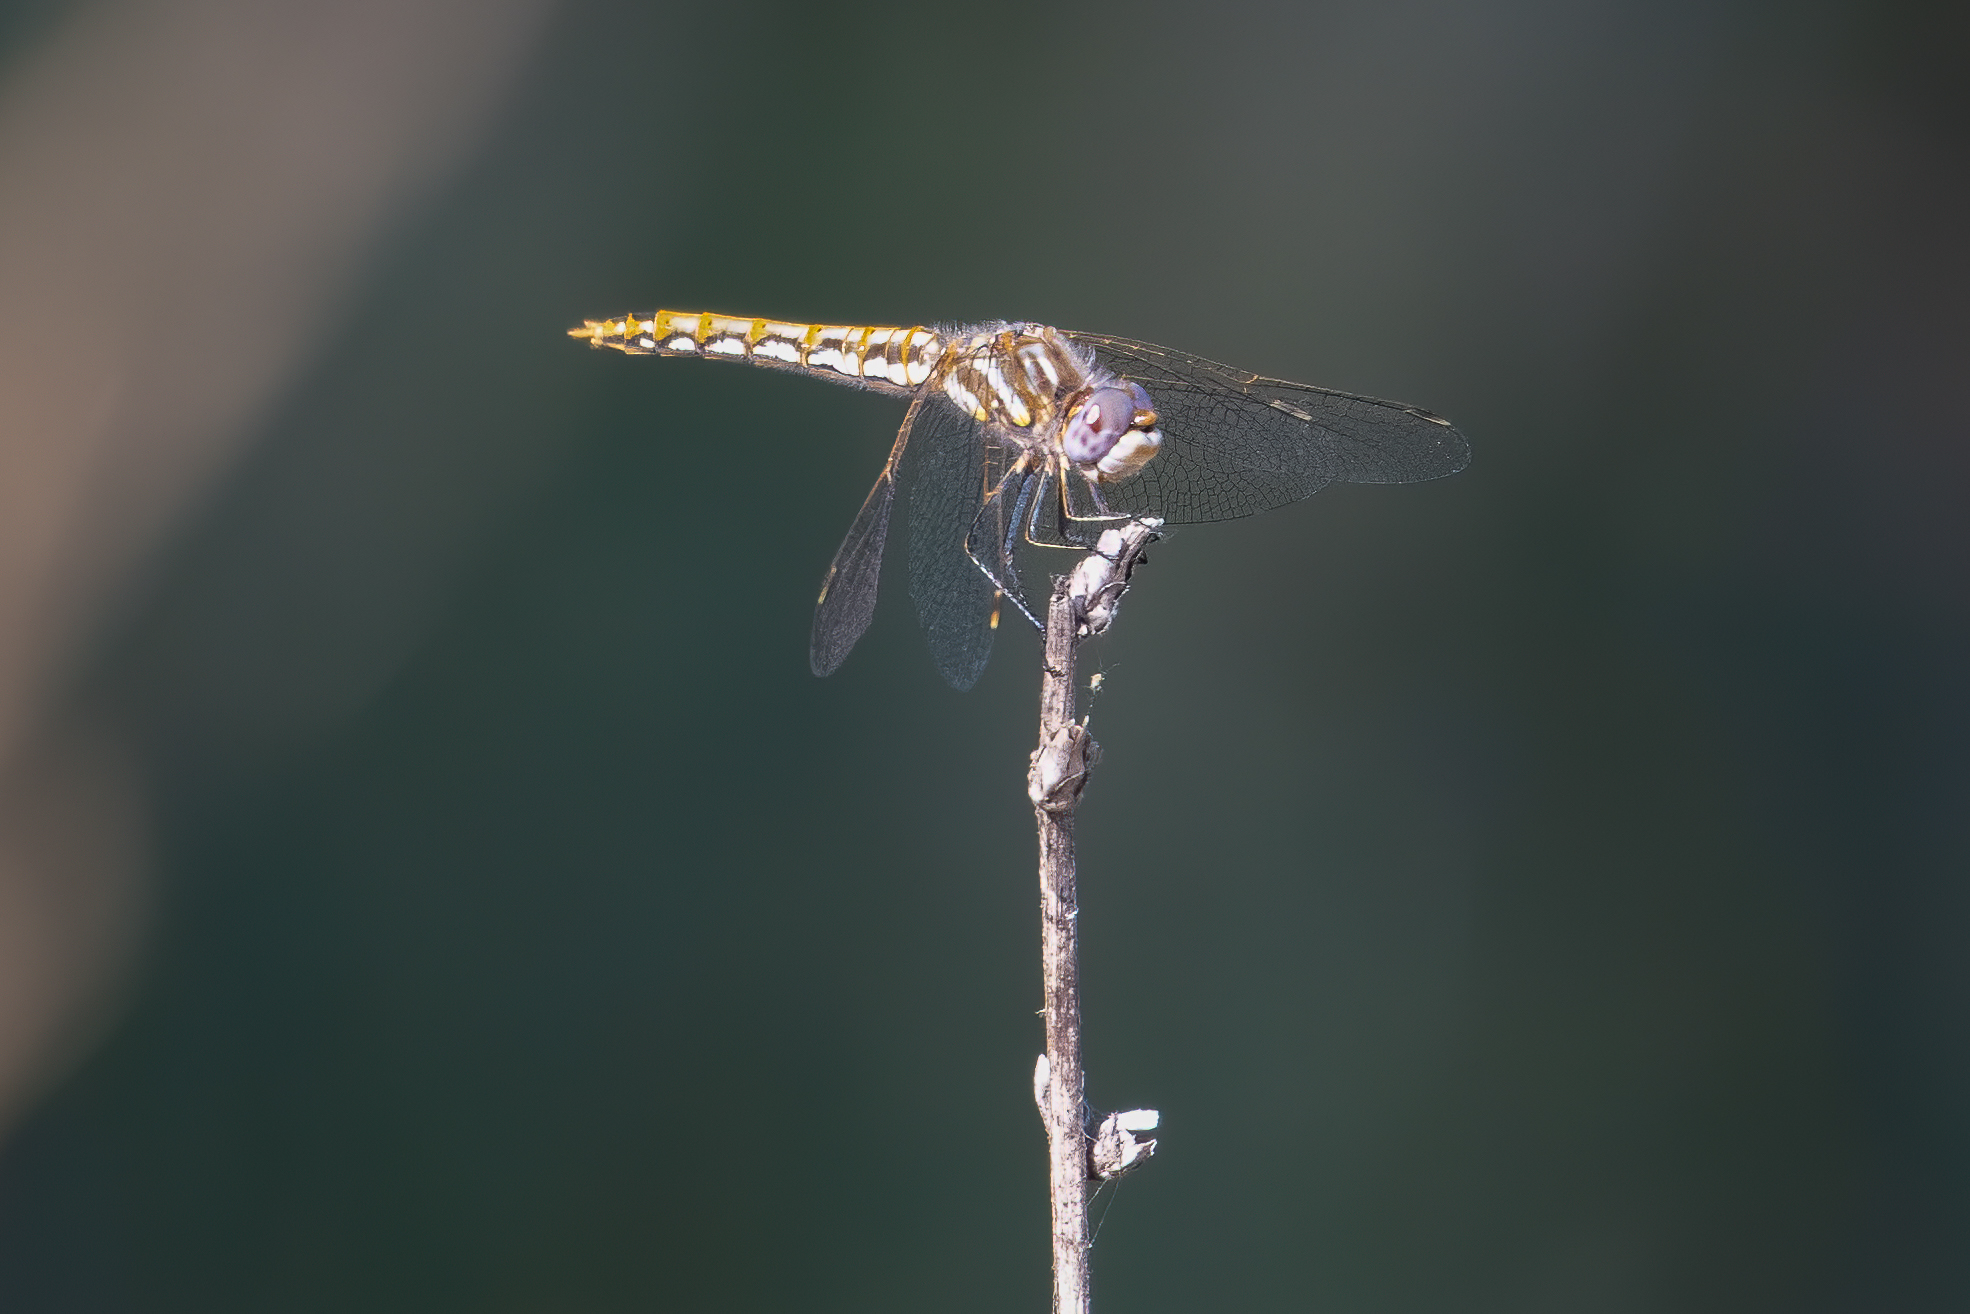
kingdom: Animalia
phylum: Arthropoda
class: Insecta
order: Odonata
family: Libellulidae
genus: Sympetrum
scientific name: Sympetrum corruptum
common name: Variegated meadowhawk
